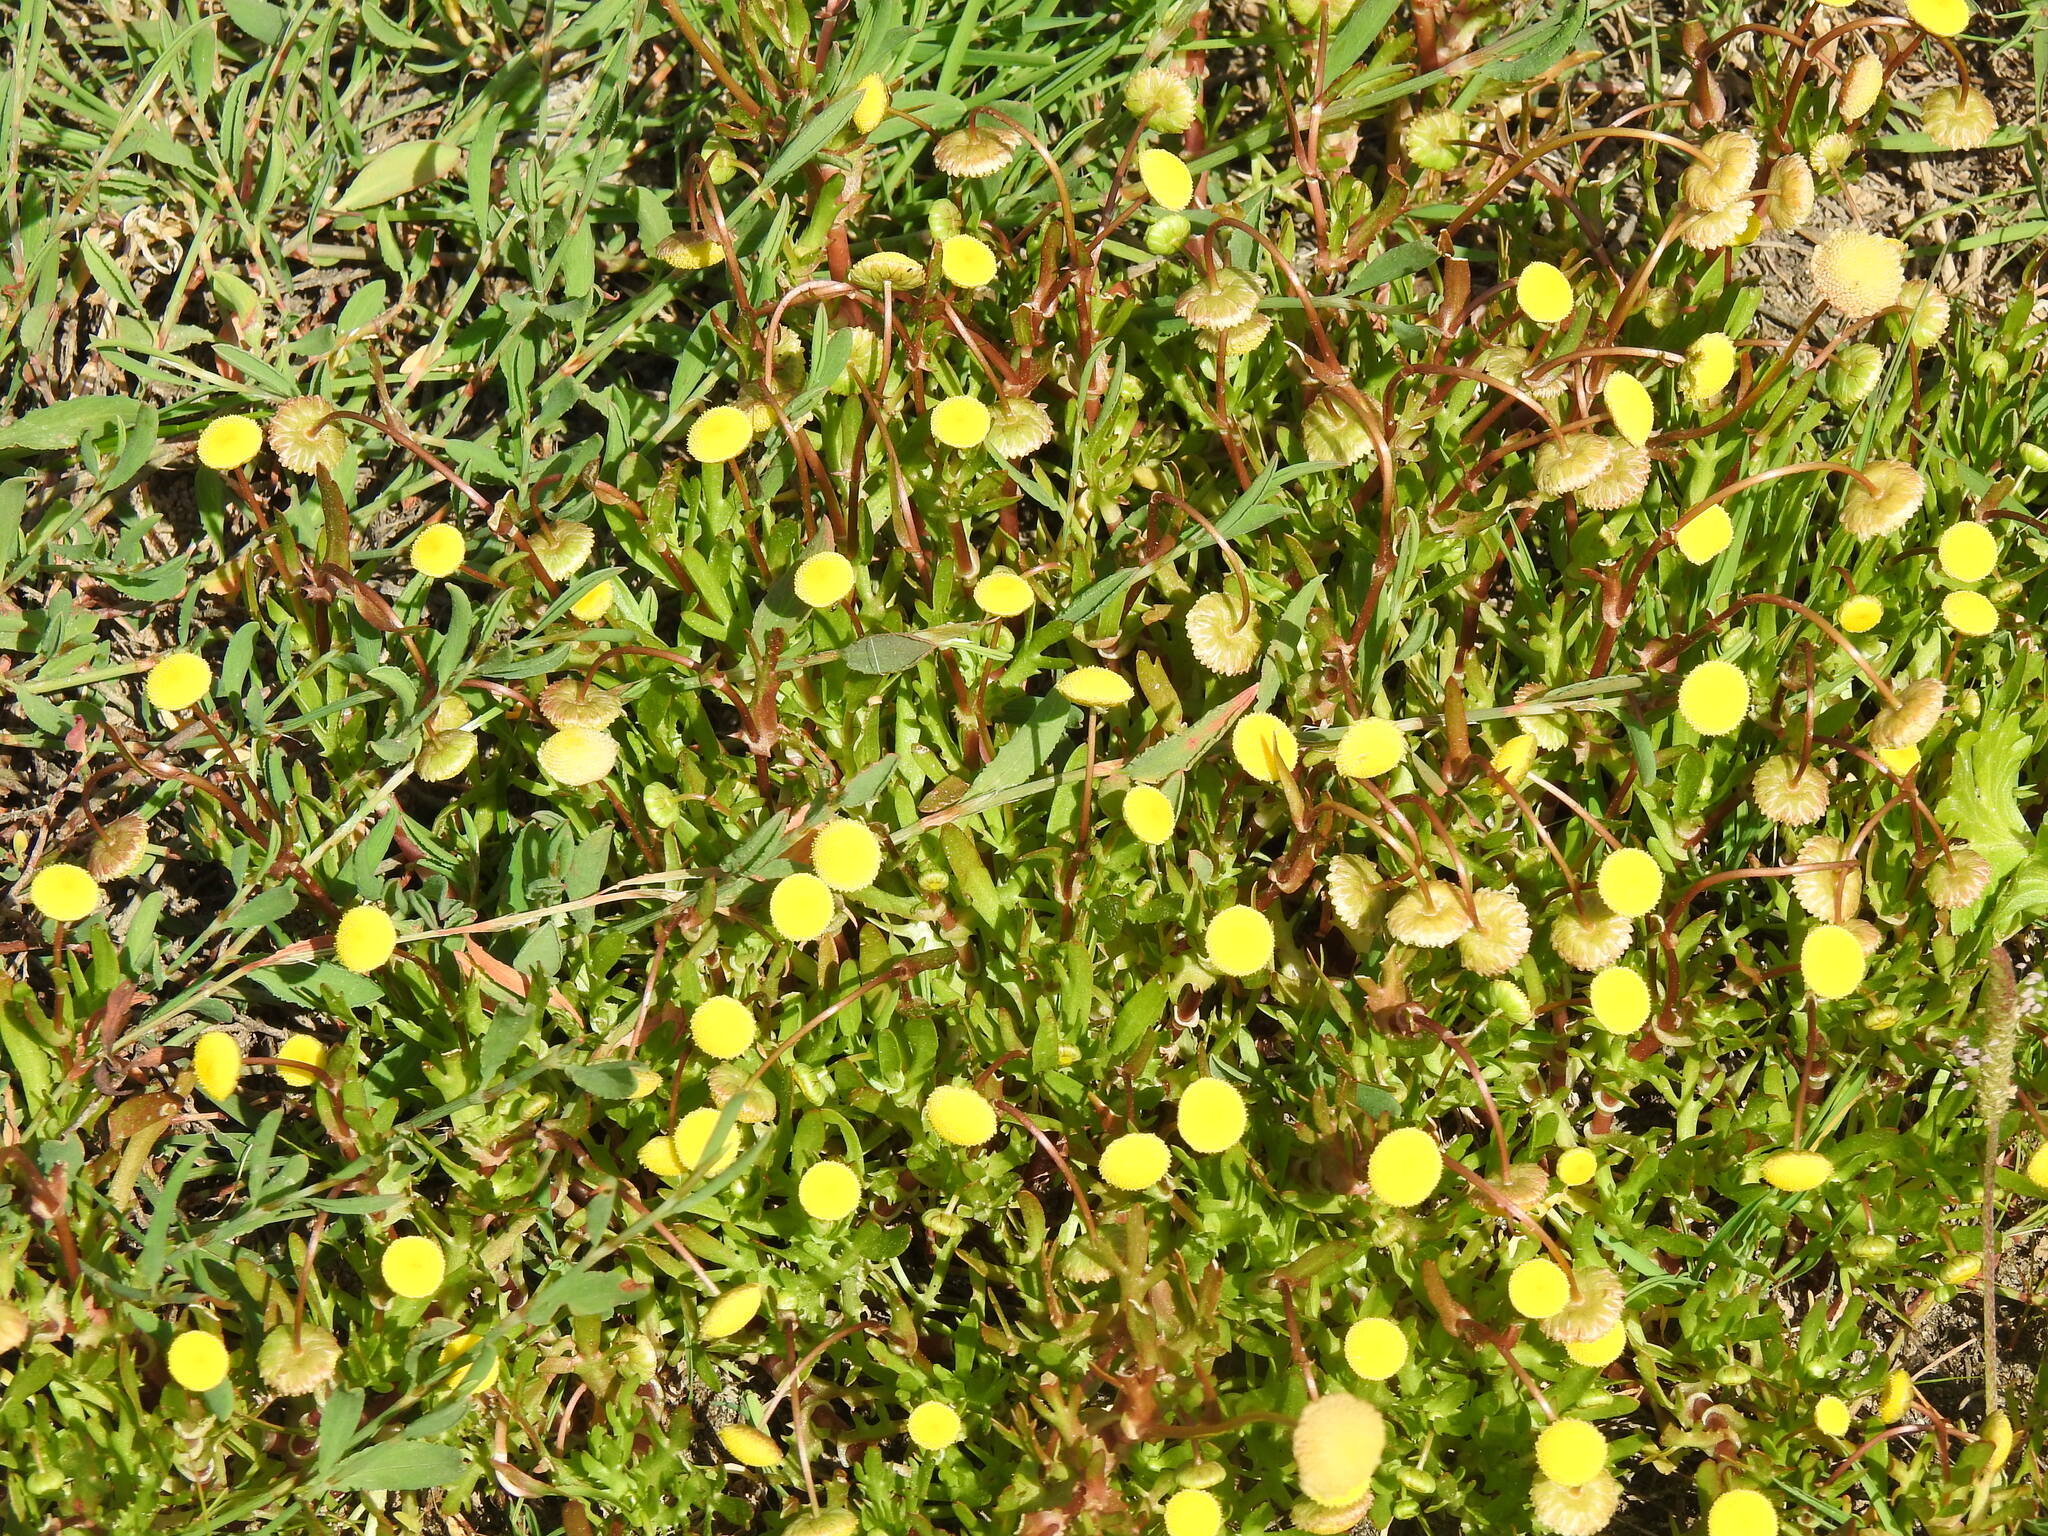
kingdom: Plantae
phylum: Tracheophyta
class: Magnoliopsida
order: Asterales
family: Asteraceae
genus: Cotula
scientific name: Cotula coronopifolia
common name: Buttonweed
